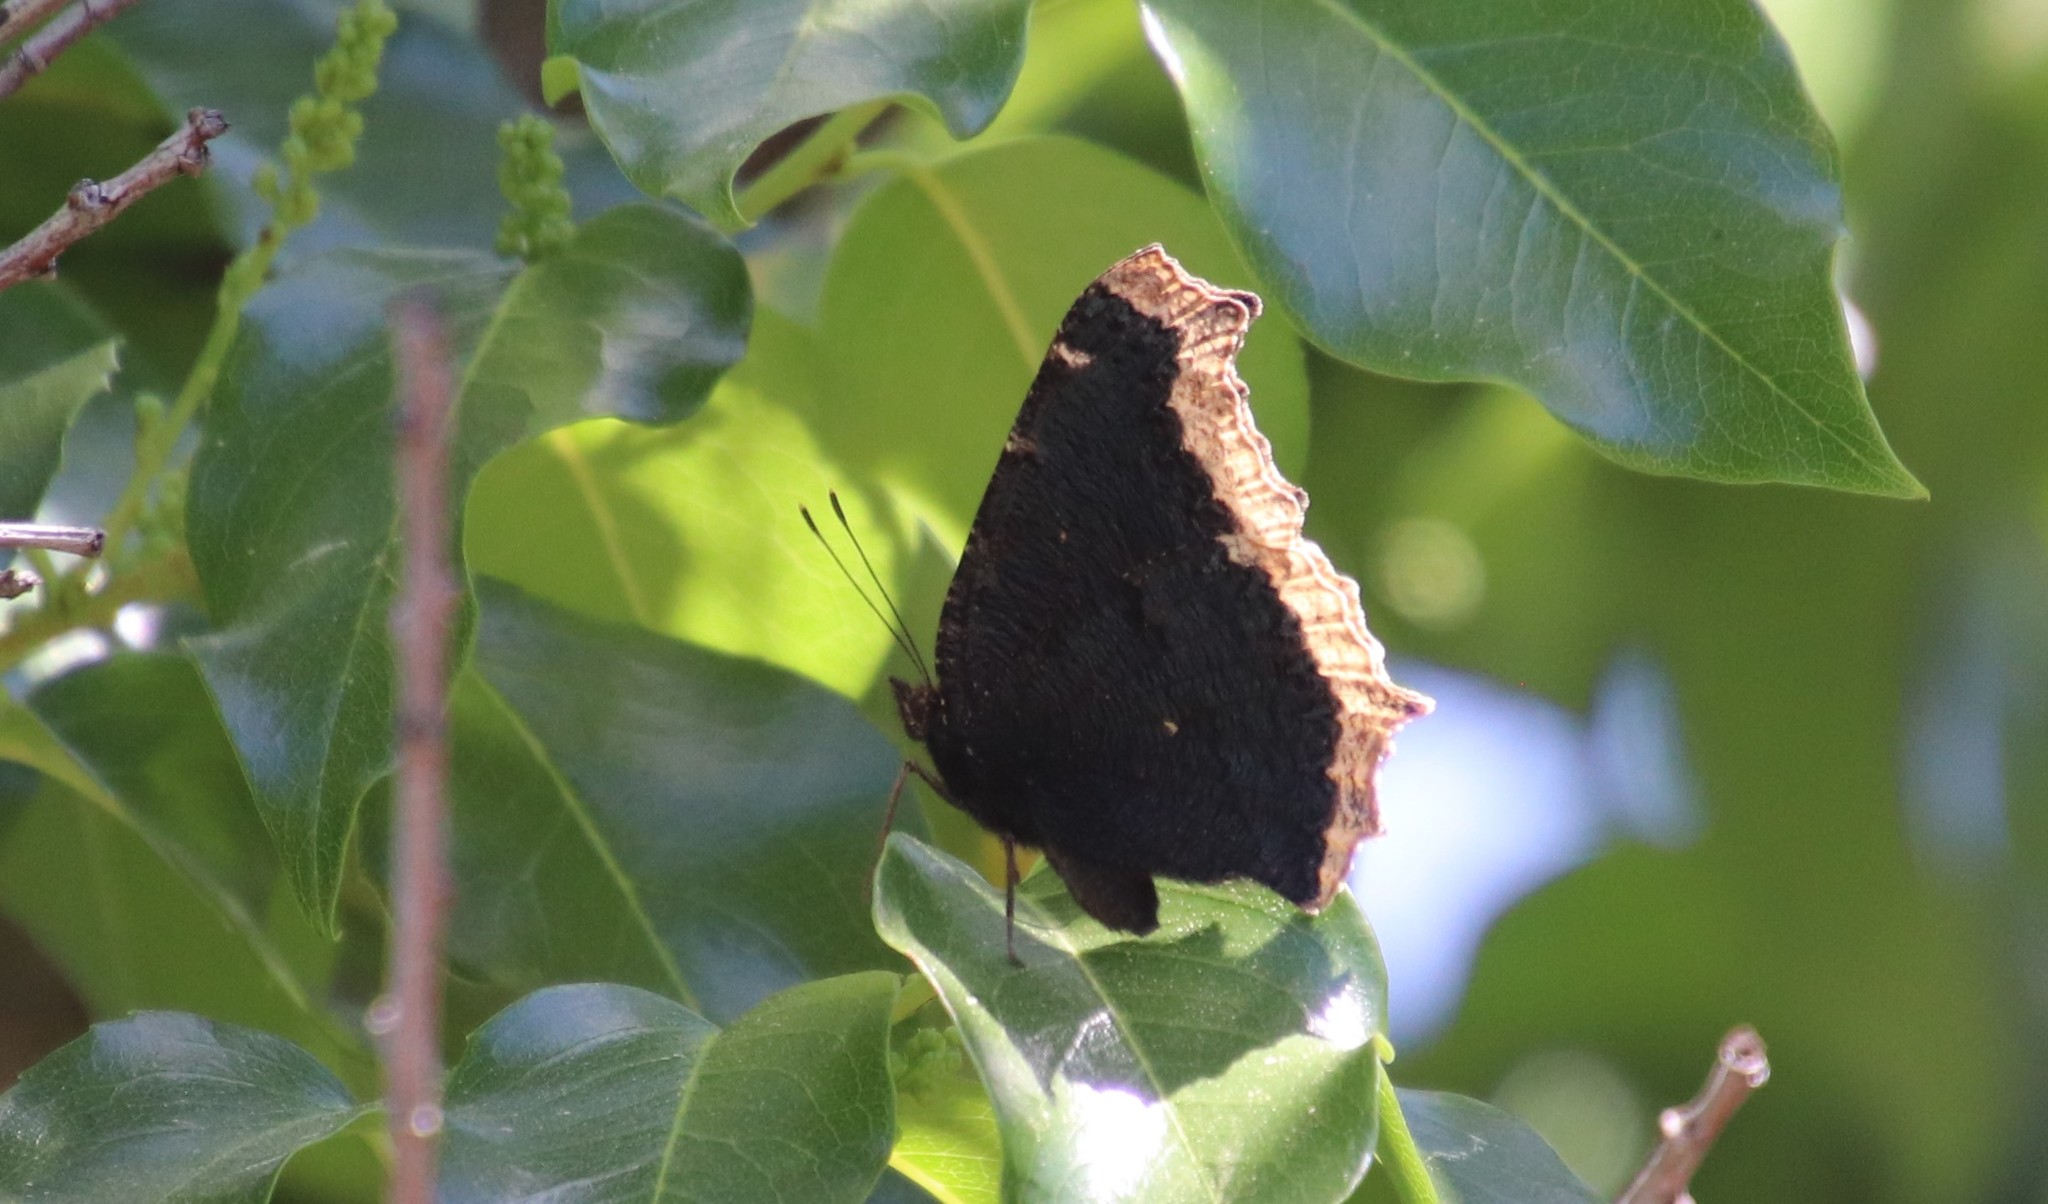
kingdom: Animalia
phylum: Arthropoda
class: Insecta
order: Lepidoptera
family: Nymphalidae
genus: Nymphalis
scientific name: Nymphalis antiopa
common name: Camberwell beauty
